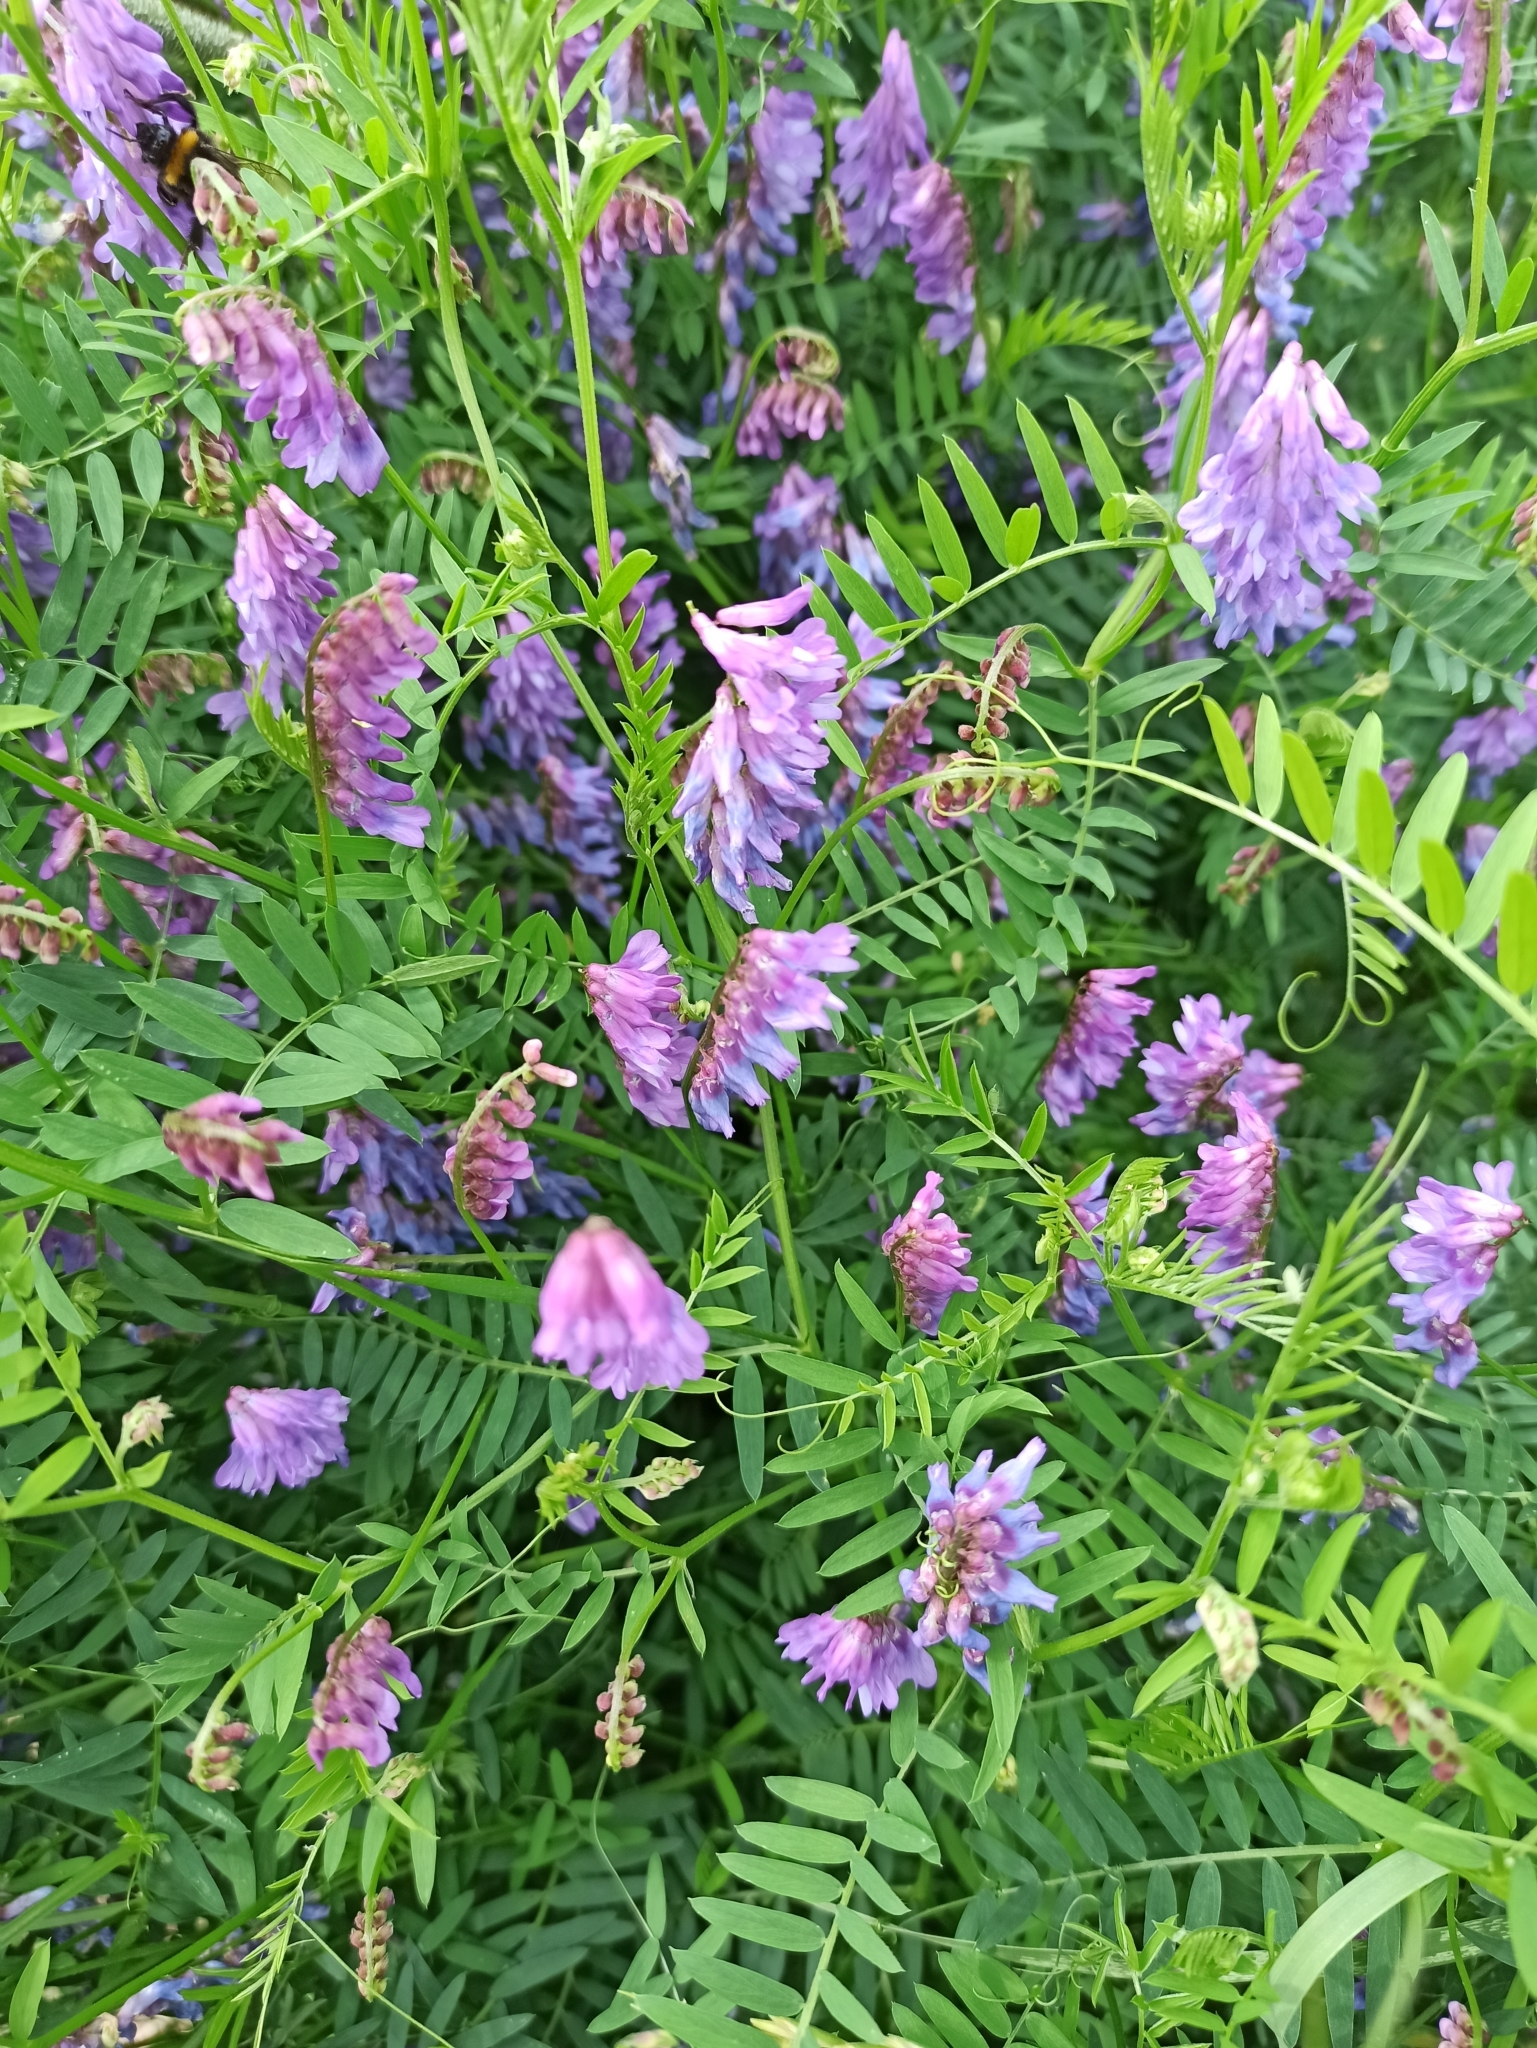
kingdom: Plantae
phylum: Tracheophyta
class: Magnoliopsida
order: Fabales
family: Fabaceae
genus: Vicia
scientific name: Vicia cracca
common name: Bird vetch
